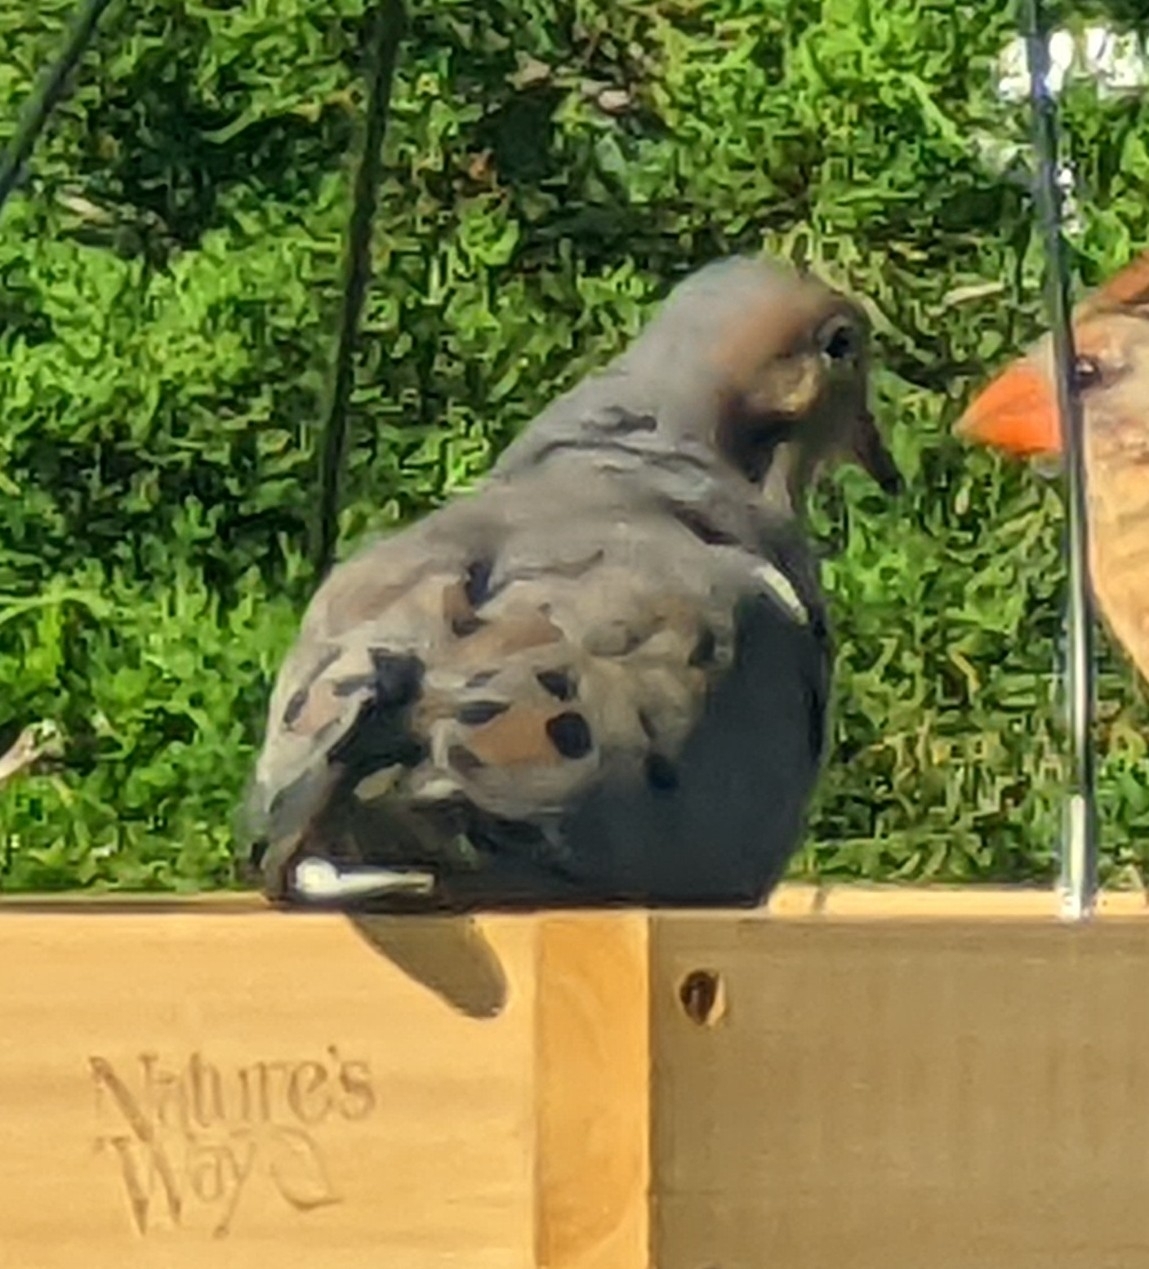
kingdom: Animalia
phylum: Chordata
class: Aves
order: Columbiformes
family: Columbidae
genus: Zenaida
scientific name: Zenaida macroura
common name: Mourning dove
